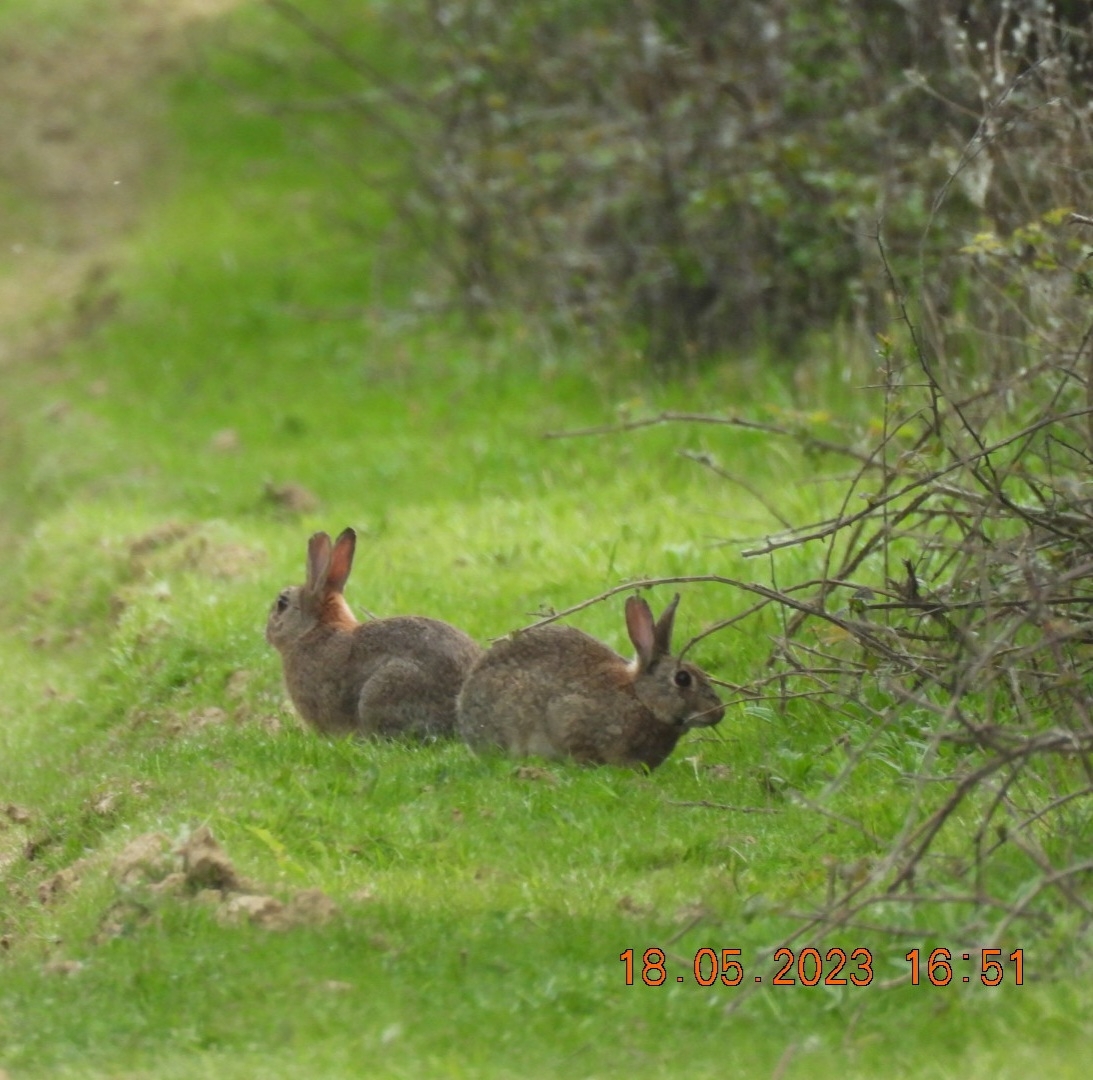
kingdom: Animalia
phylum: Chordata
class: Mammalia
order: Lagomorpha
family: Leporidae
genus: Oryctolagus
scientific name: Oryctolagus cuniculus
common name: European rabbit
